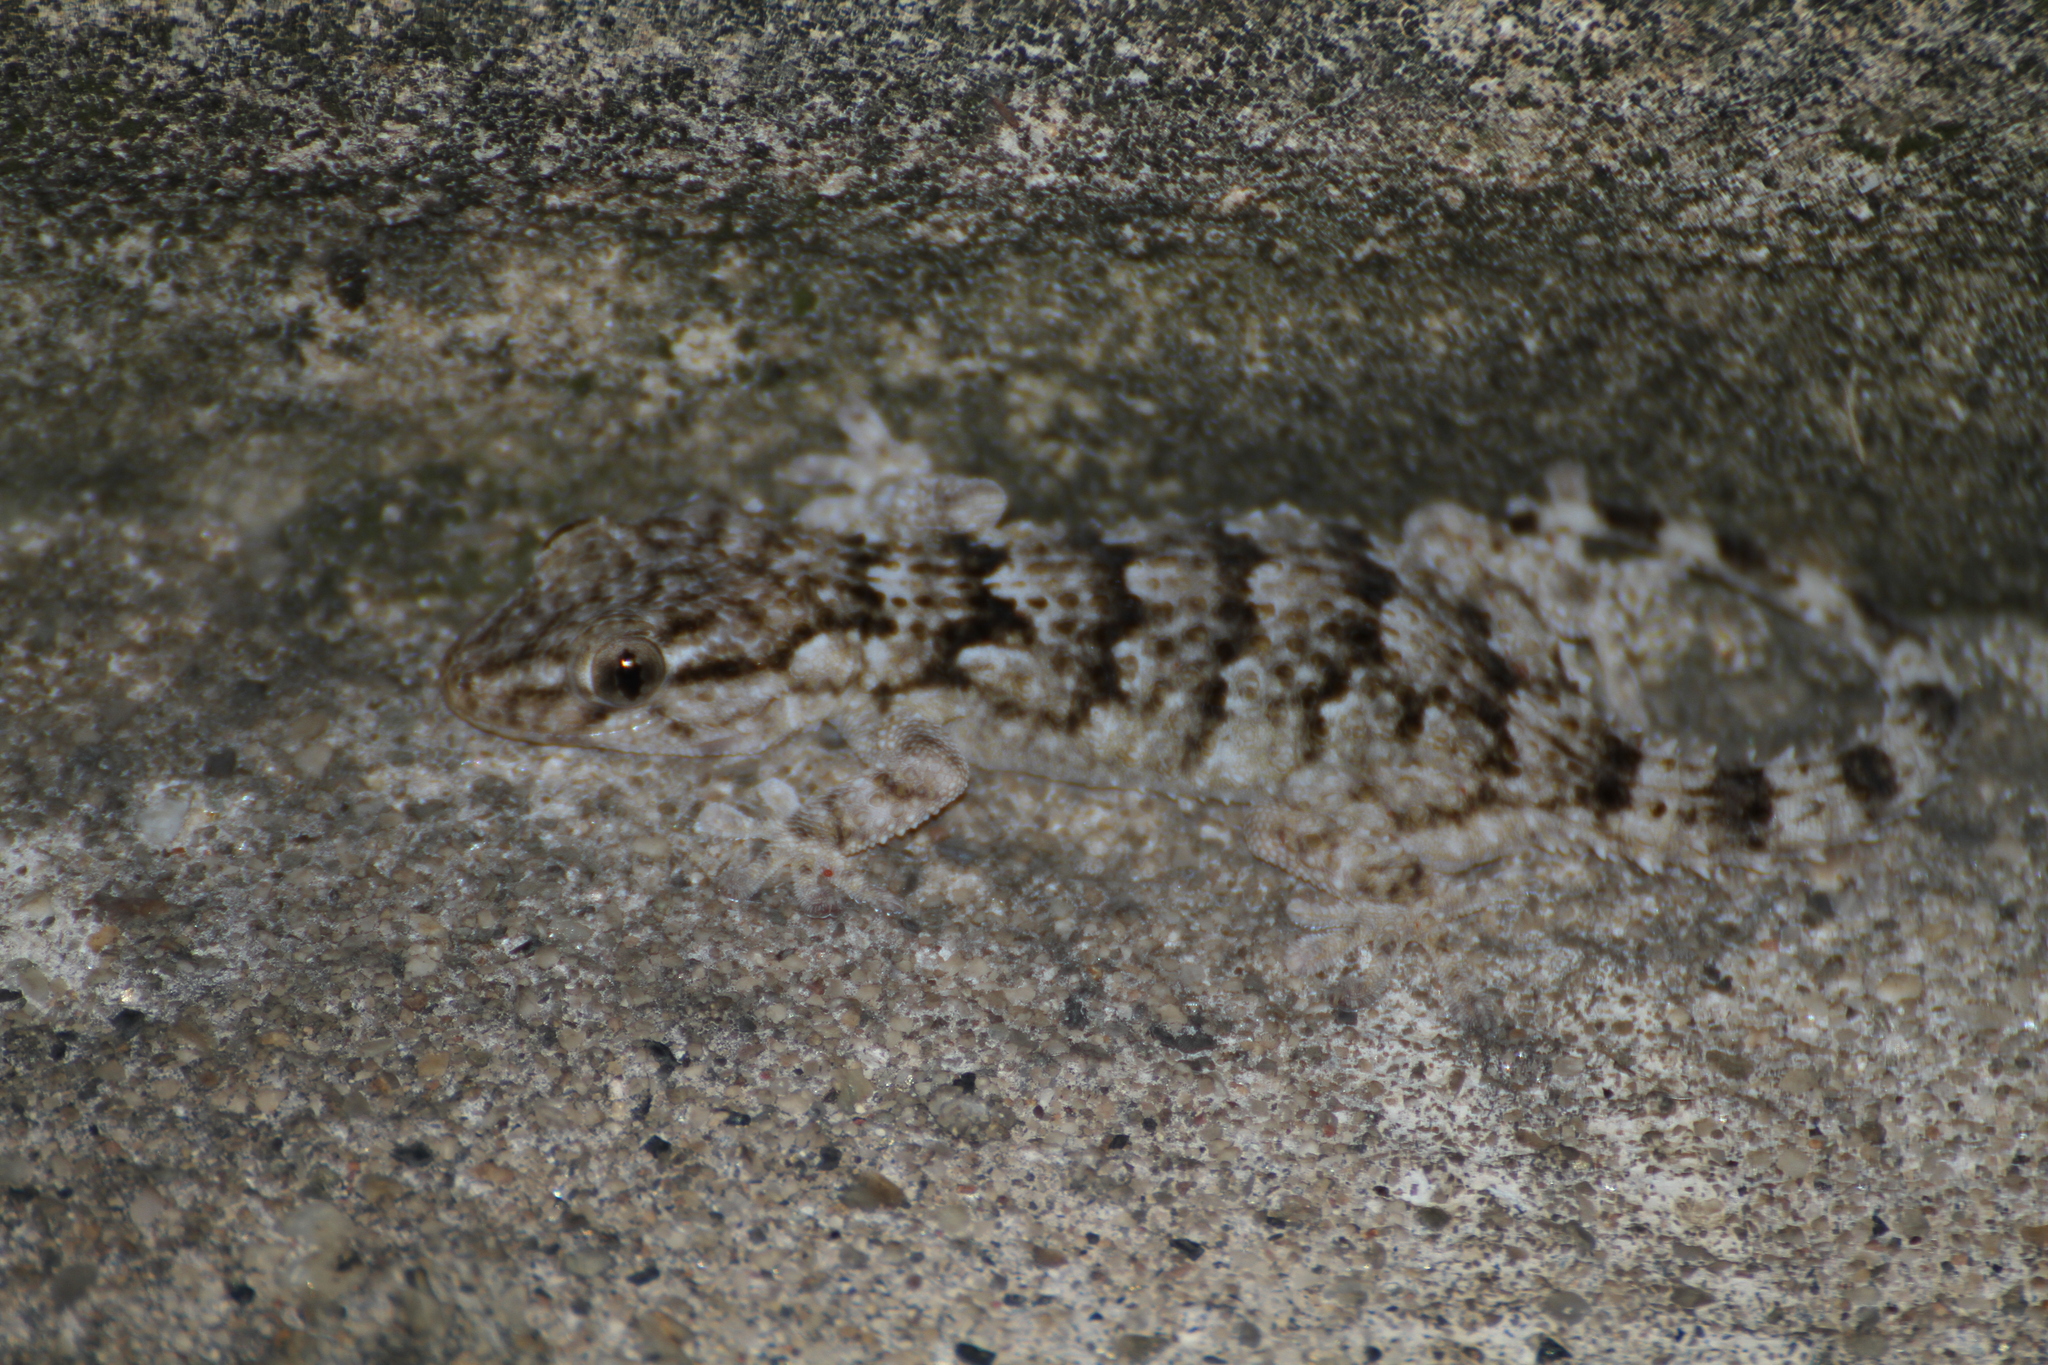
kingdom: Animalia
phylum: Chordata
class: Squamata
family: Phyllodactylidae
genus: Tarentola
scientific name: Tarentola mauritanica
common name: Moorish gecko
